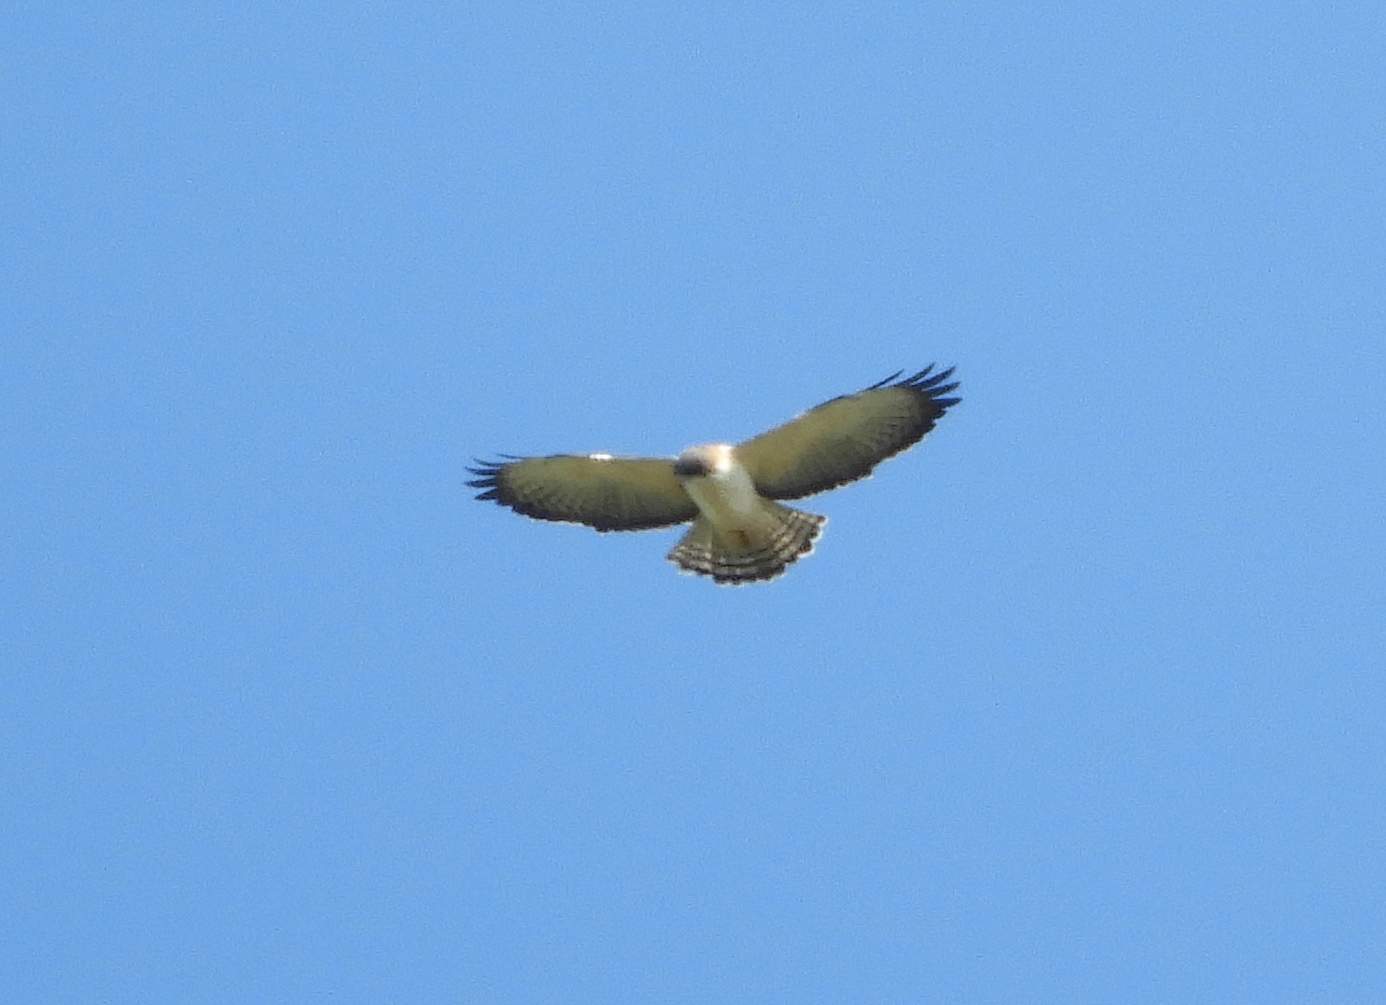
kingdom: Animalia
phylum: Chordata
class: Aves
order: Accipitriformes
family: Accipitridae
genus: Buteo
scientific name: Buteo brachyurus
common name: Short-tailed hawk
